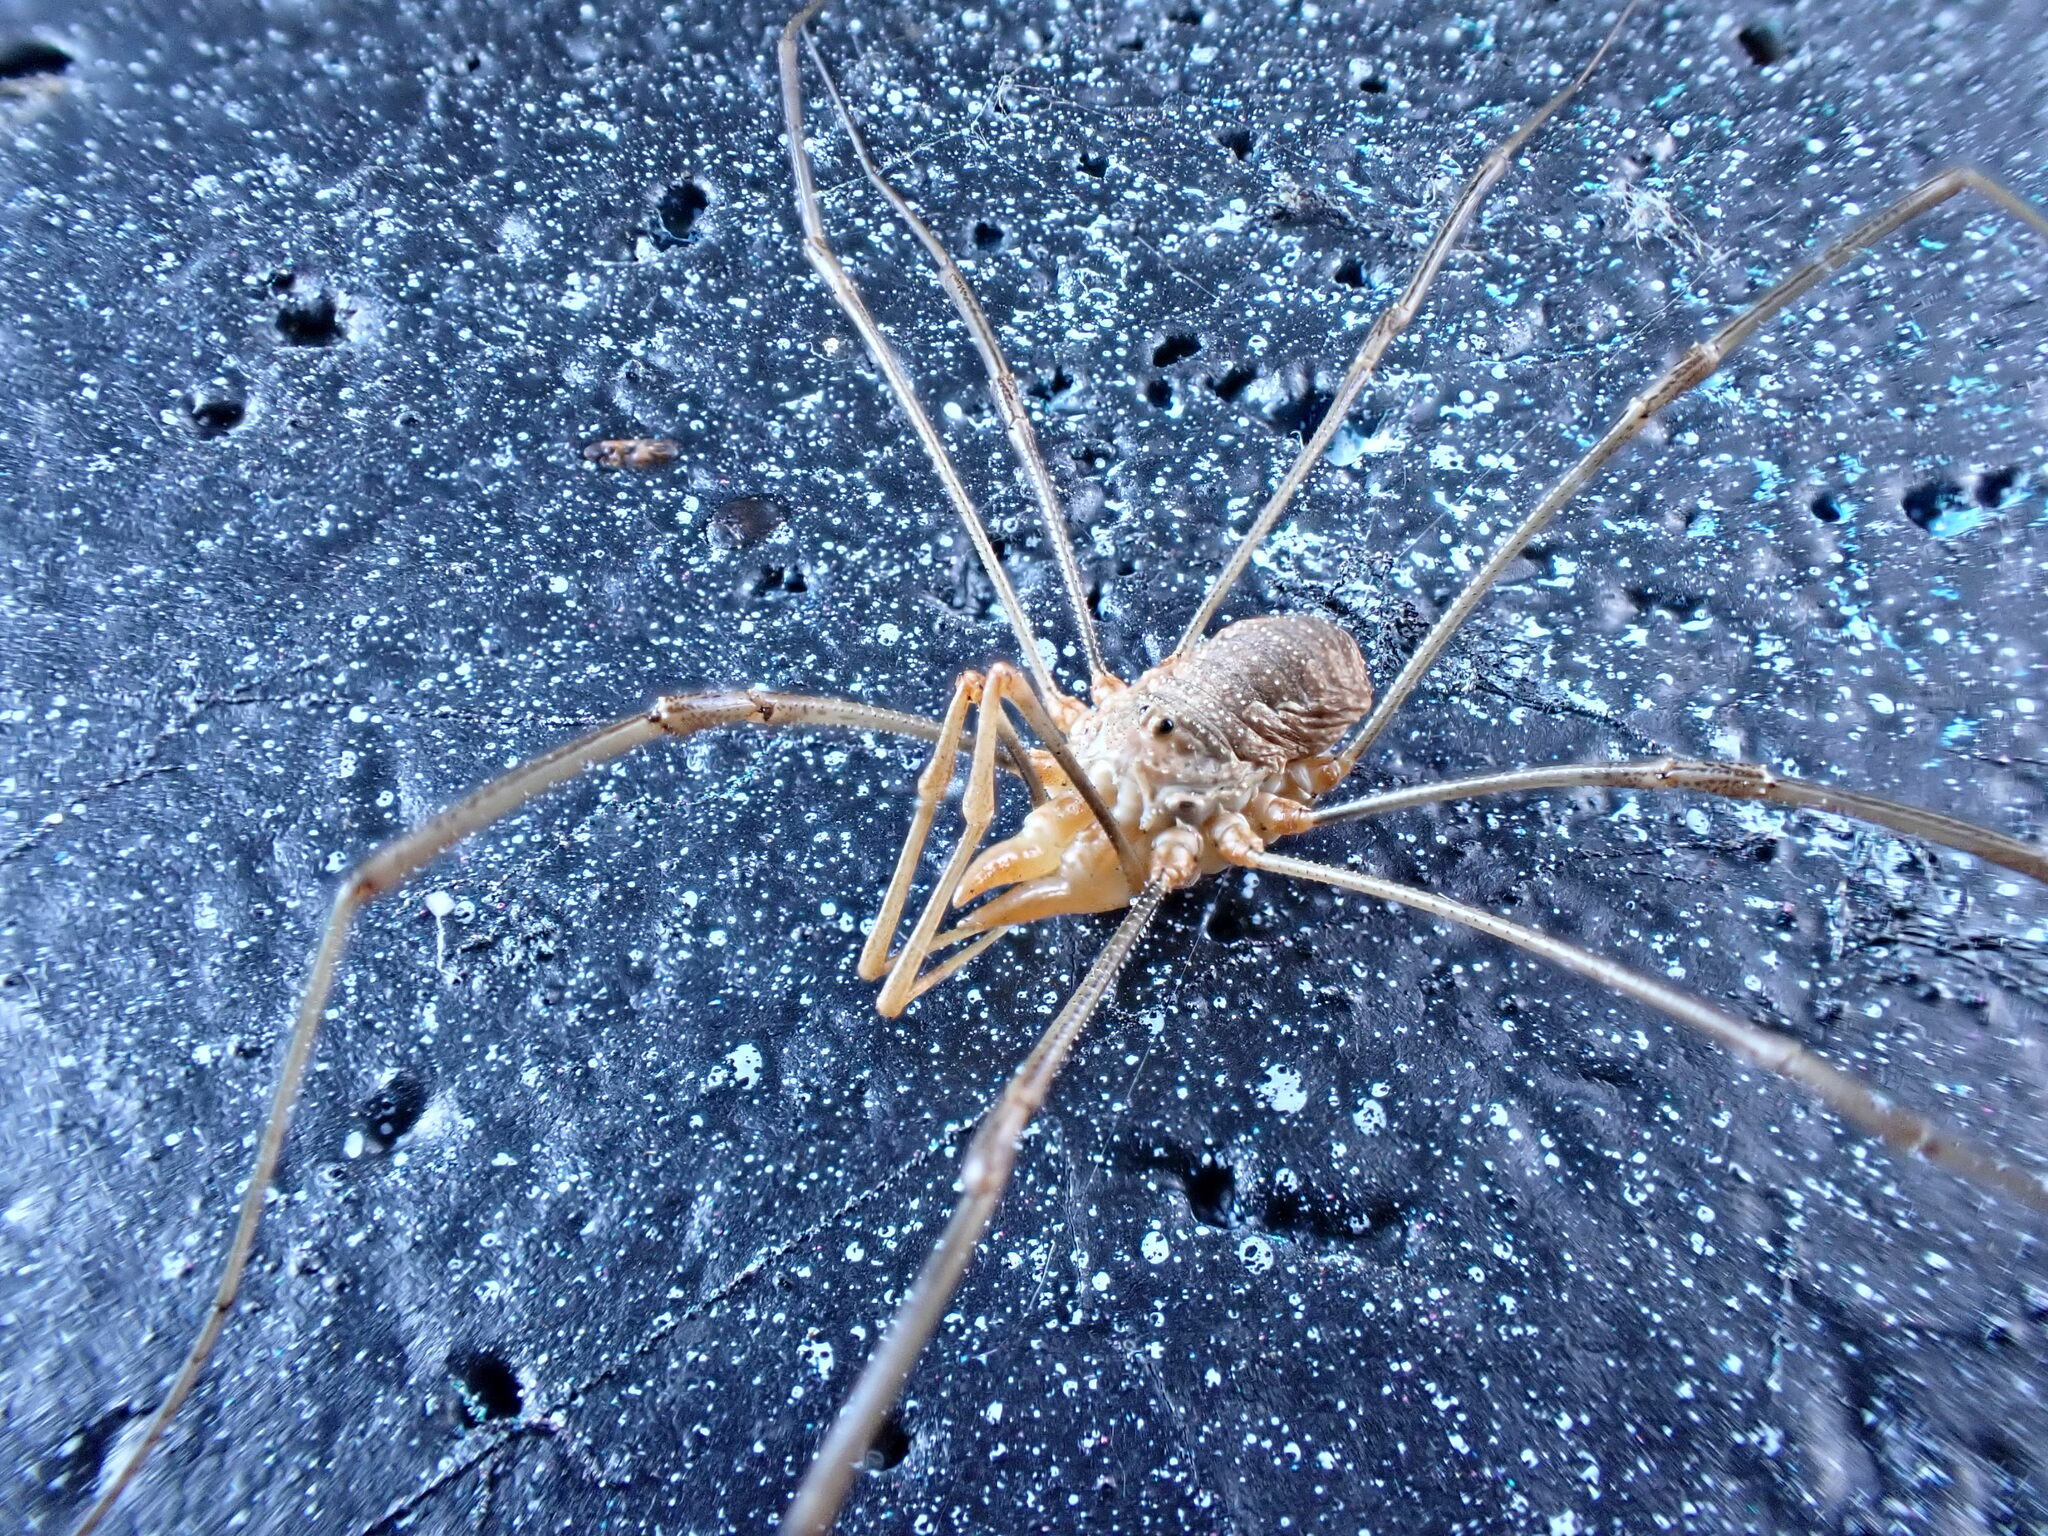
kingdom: Animalia
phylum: Arthropoda
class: Arachnida
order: Opiliones
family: Phalangiidae
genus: Phalangium
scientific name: Phalangium opilio
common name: Daddy longleg
